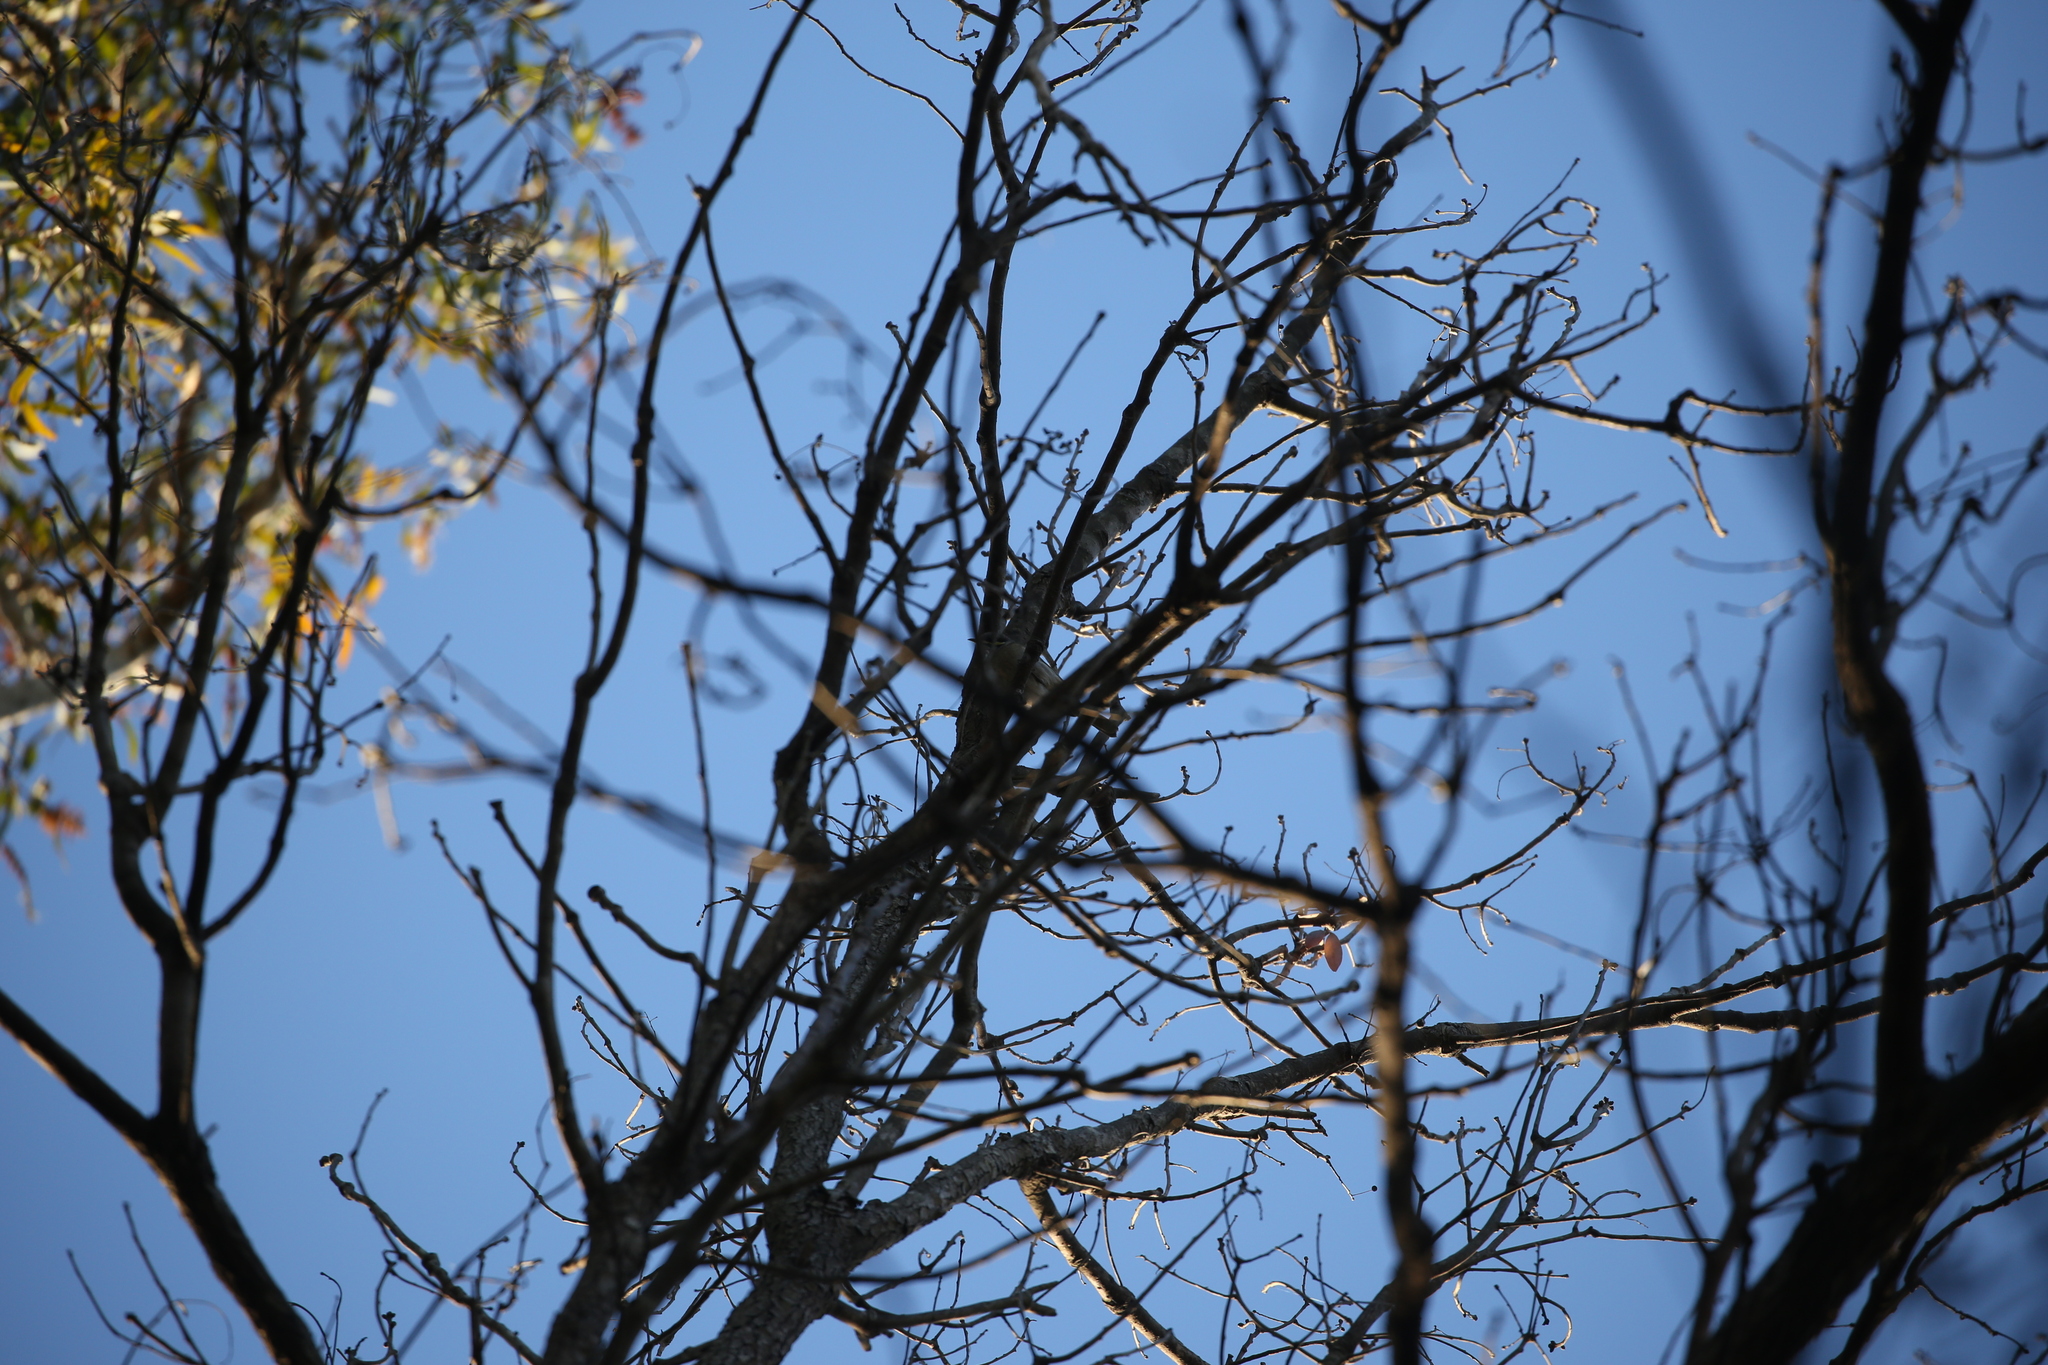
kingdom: Animalia
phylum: Chordata
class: Aves
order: Passeriformes
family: Meliphagidae
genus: Caligavis
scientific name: Caligavis chrysops
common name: Yellow-faced honeyeater
